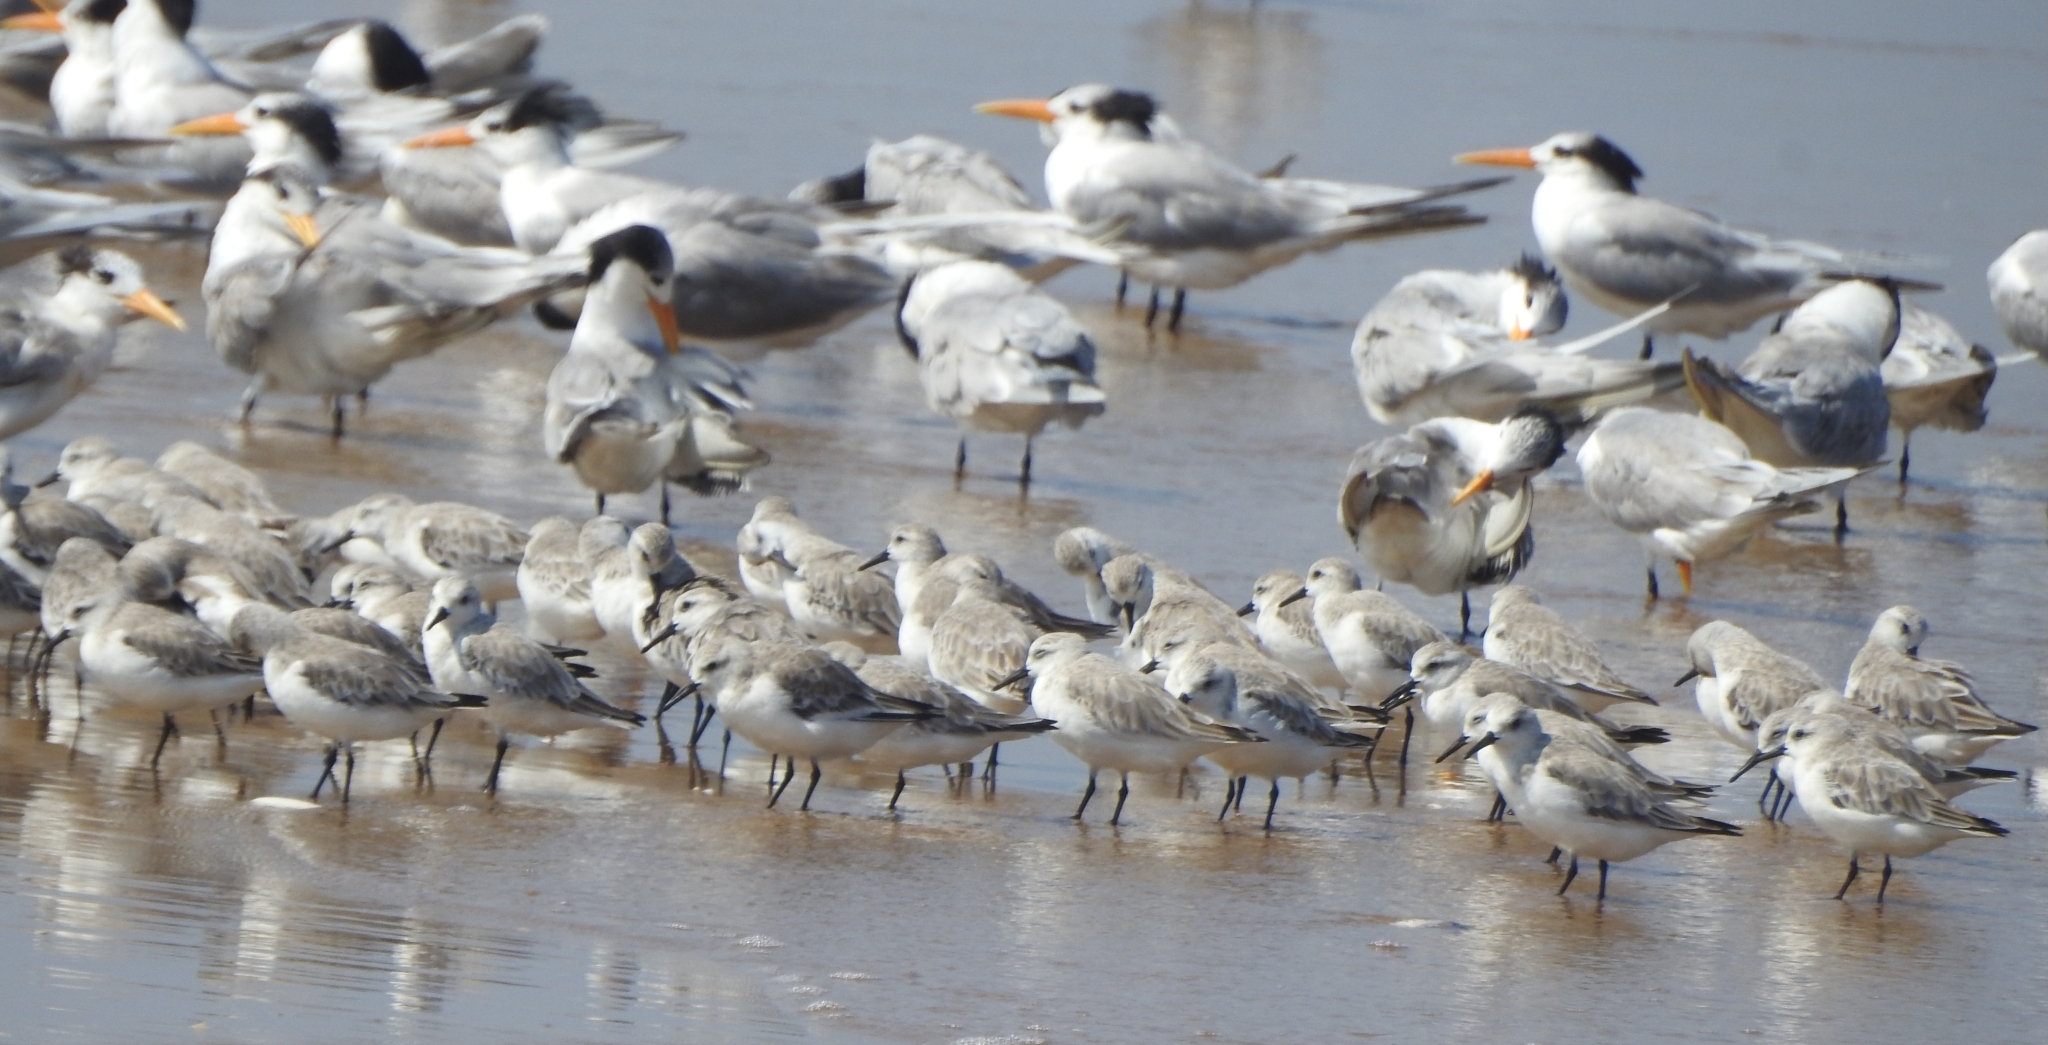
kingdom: Animalia
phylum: Chordata
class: Aves
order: Charadriiformes
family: Scolopacidae
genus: Calidris
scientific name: Calidris alba
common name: Sanderling
